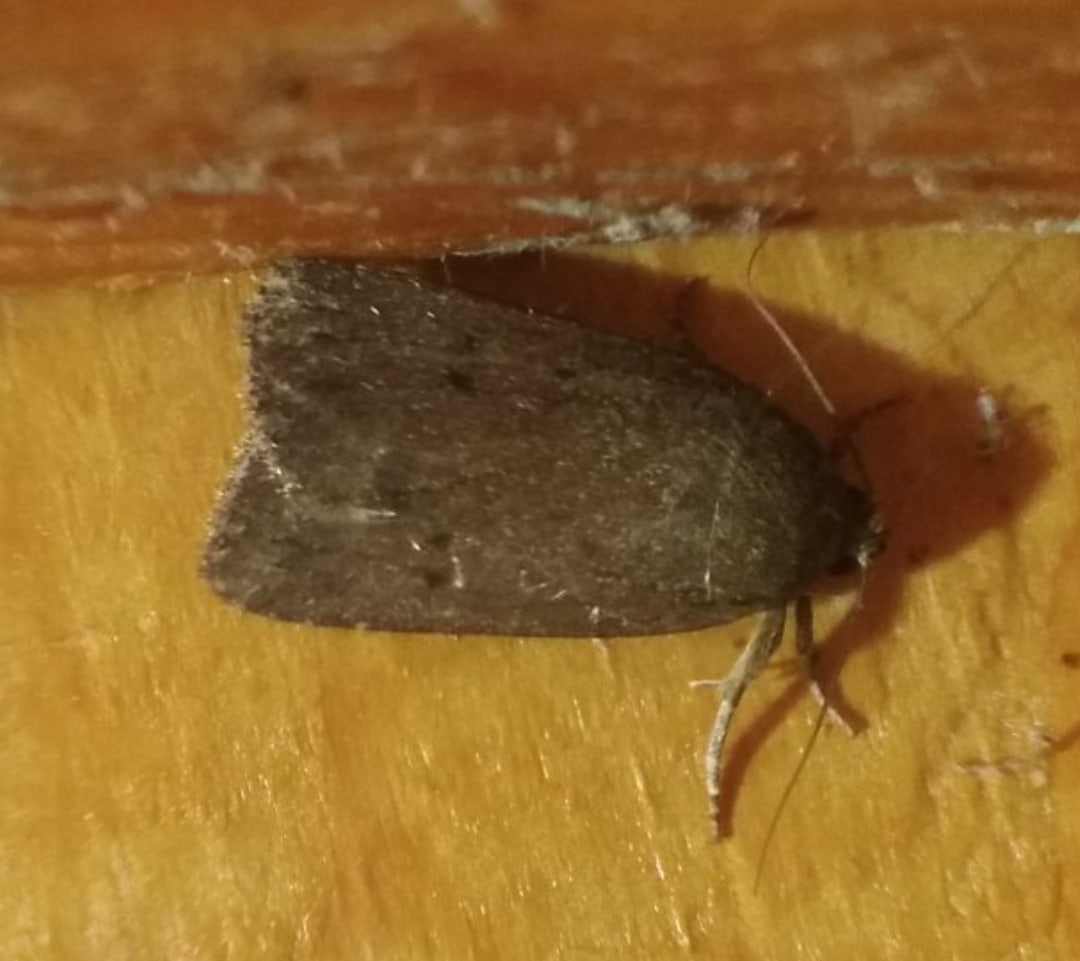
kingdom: Animalia
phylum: Arthropoda
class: Insecta
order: Lepidoptera
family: Noctuidae
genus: Amphipyra
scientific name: Amphipyra tragopoginis
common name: Mouse moth
